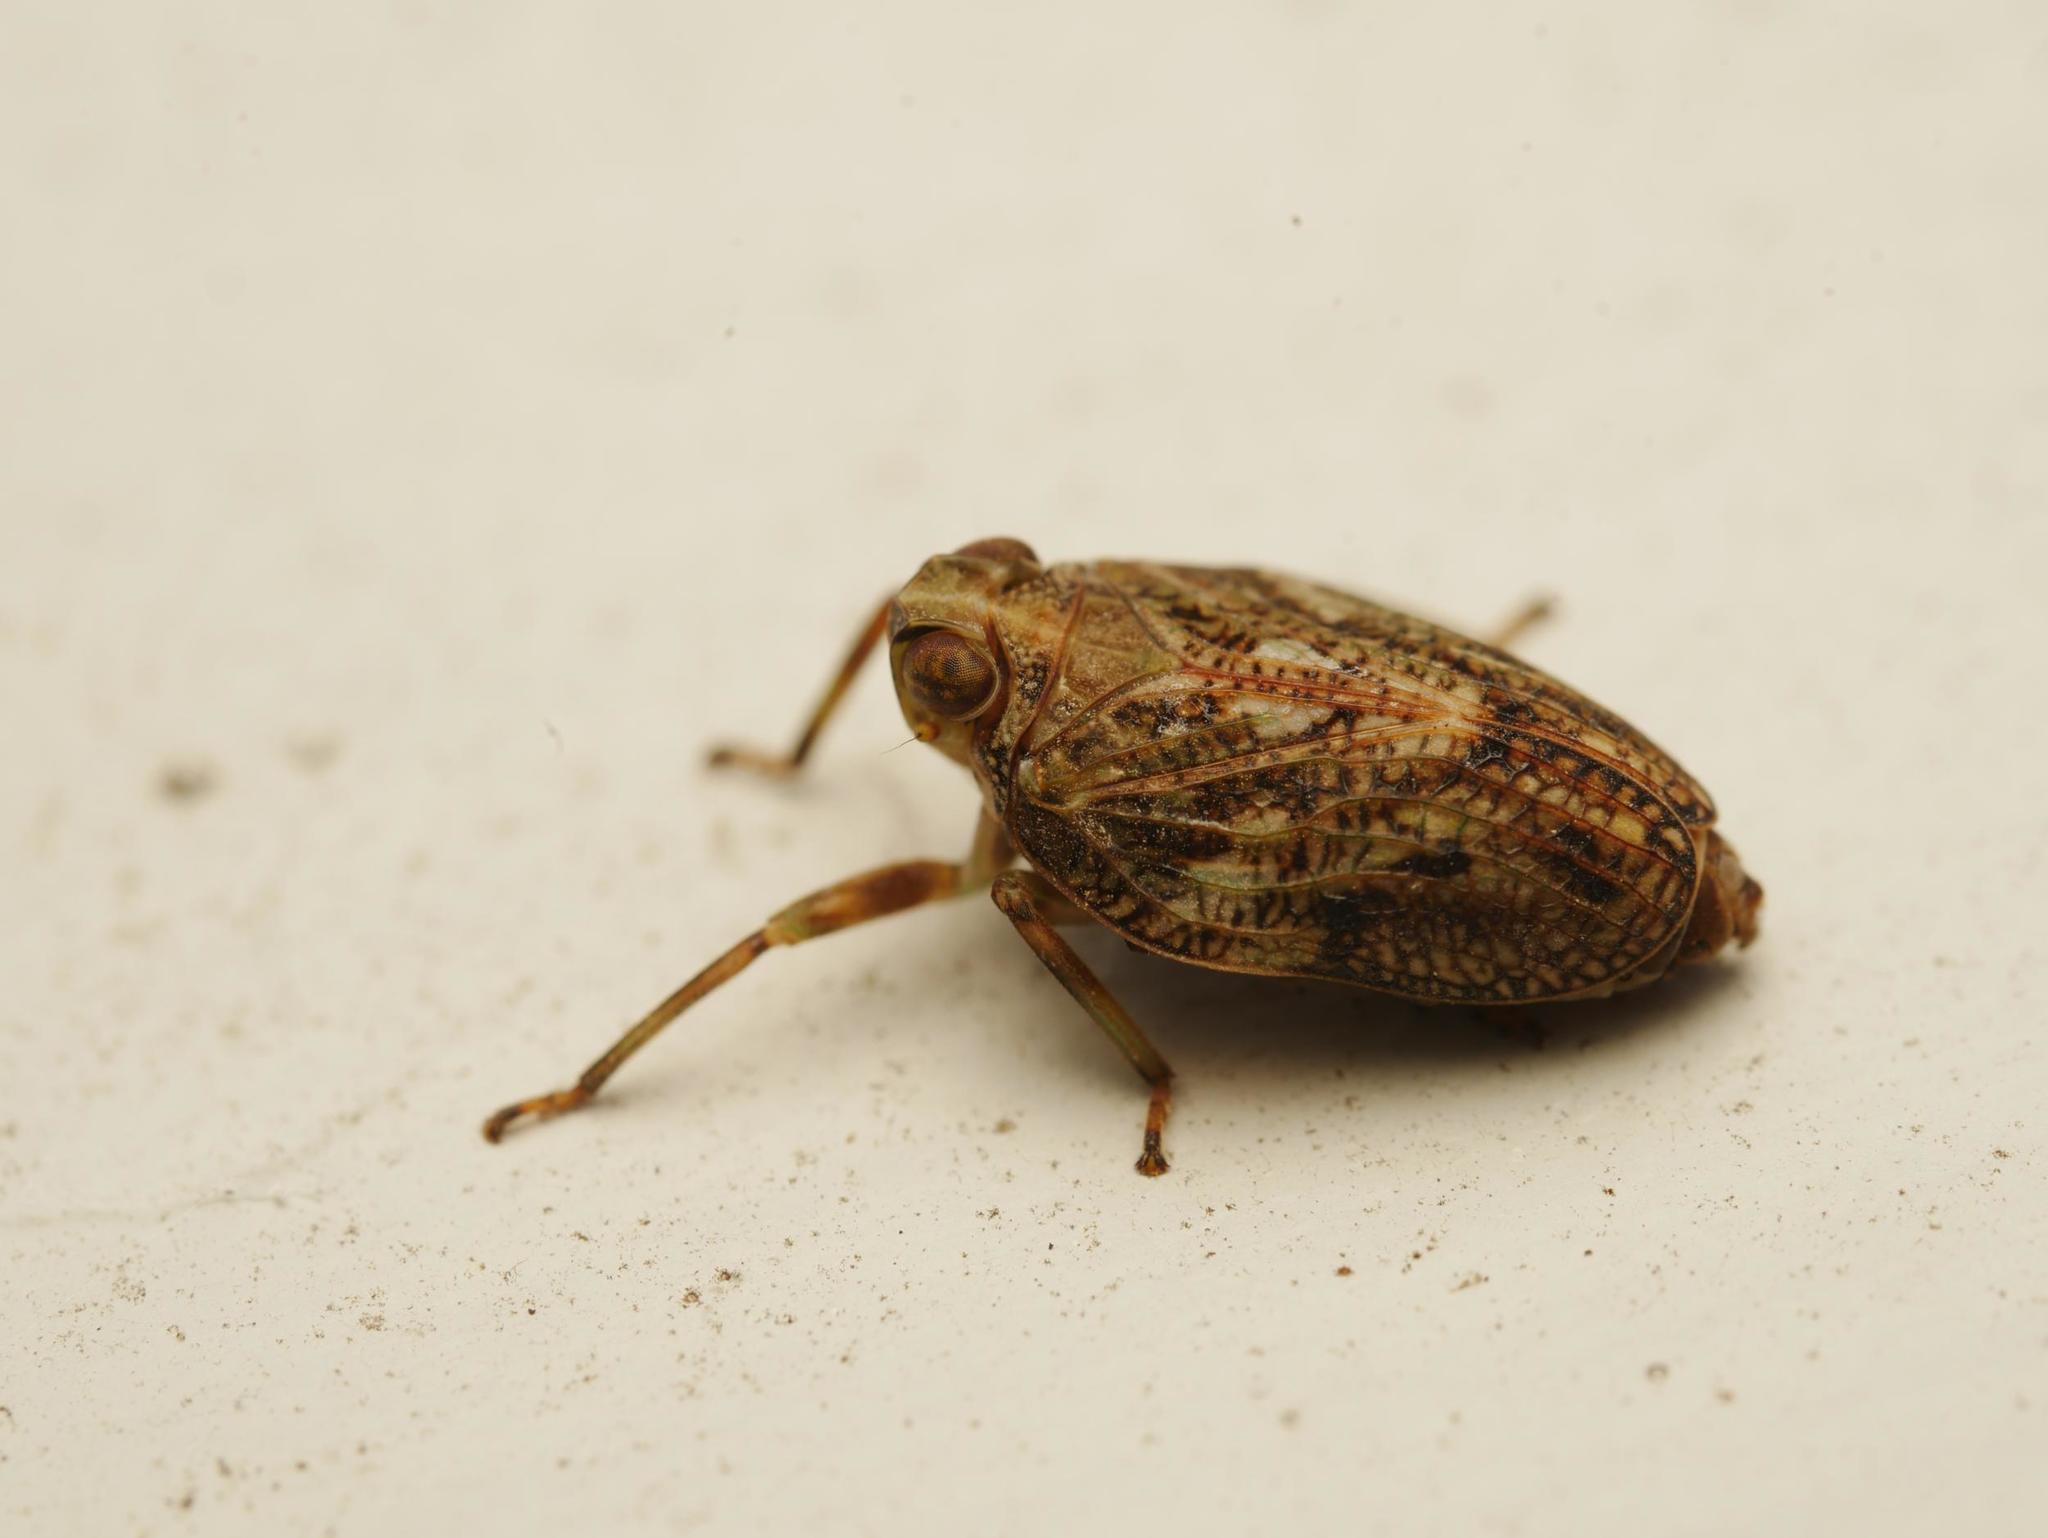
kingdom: Animalia
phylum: Arthropoda
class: Insecta
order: Hemiptera
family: Issidae
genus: Issus
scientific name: Issus coleoptratus
